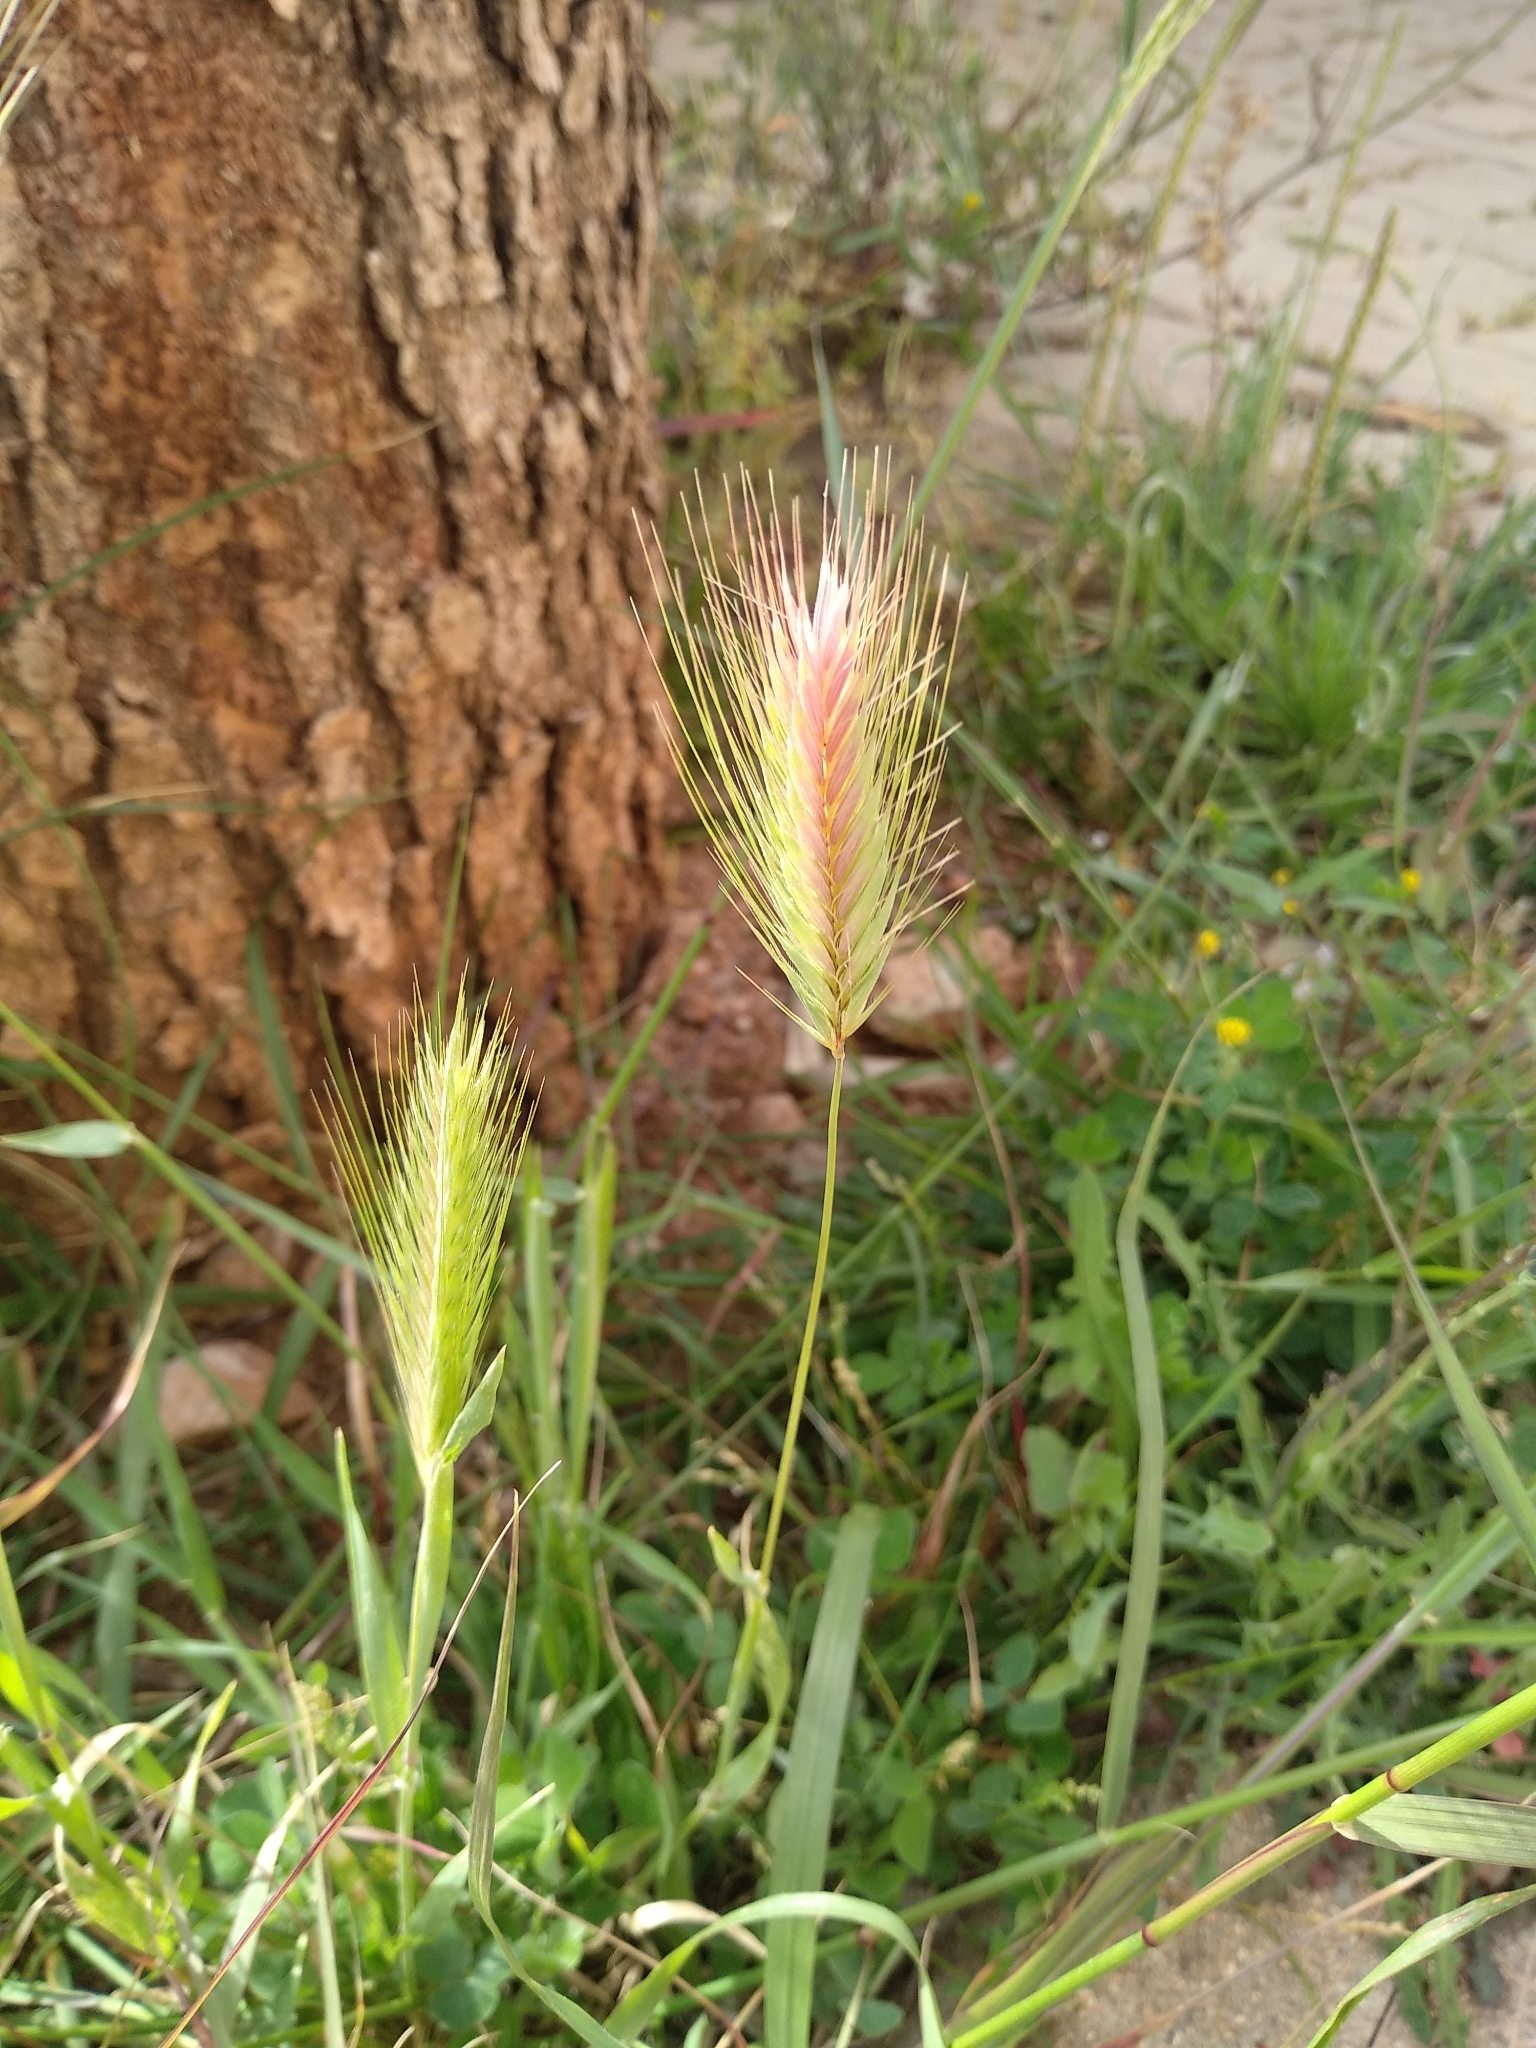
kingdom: Plantae
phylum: Tracheophyta
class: Liliopsida
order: Poales
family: Poaceae
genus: Hordeum
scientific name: Hordeum murinum
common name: Wall barley
